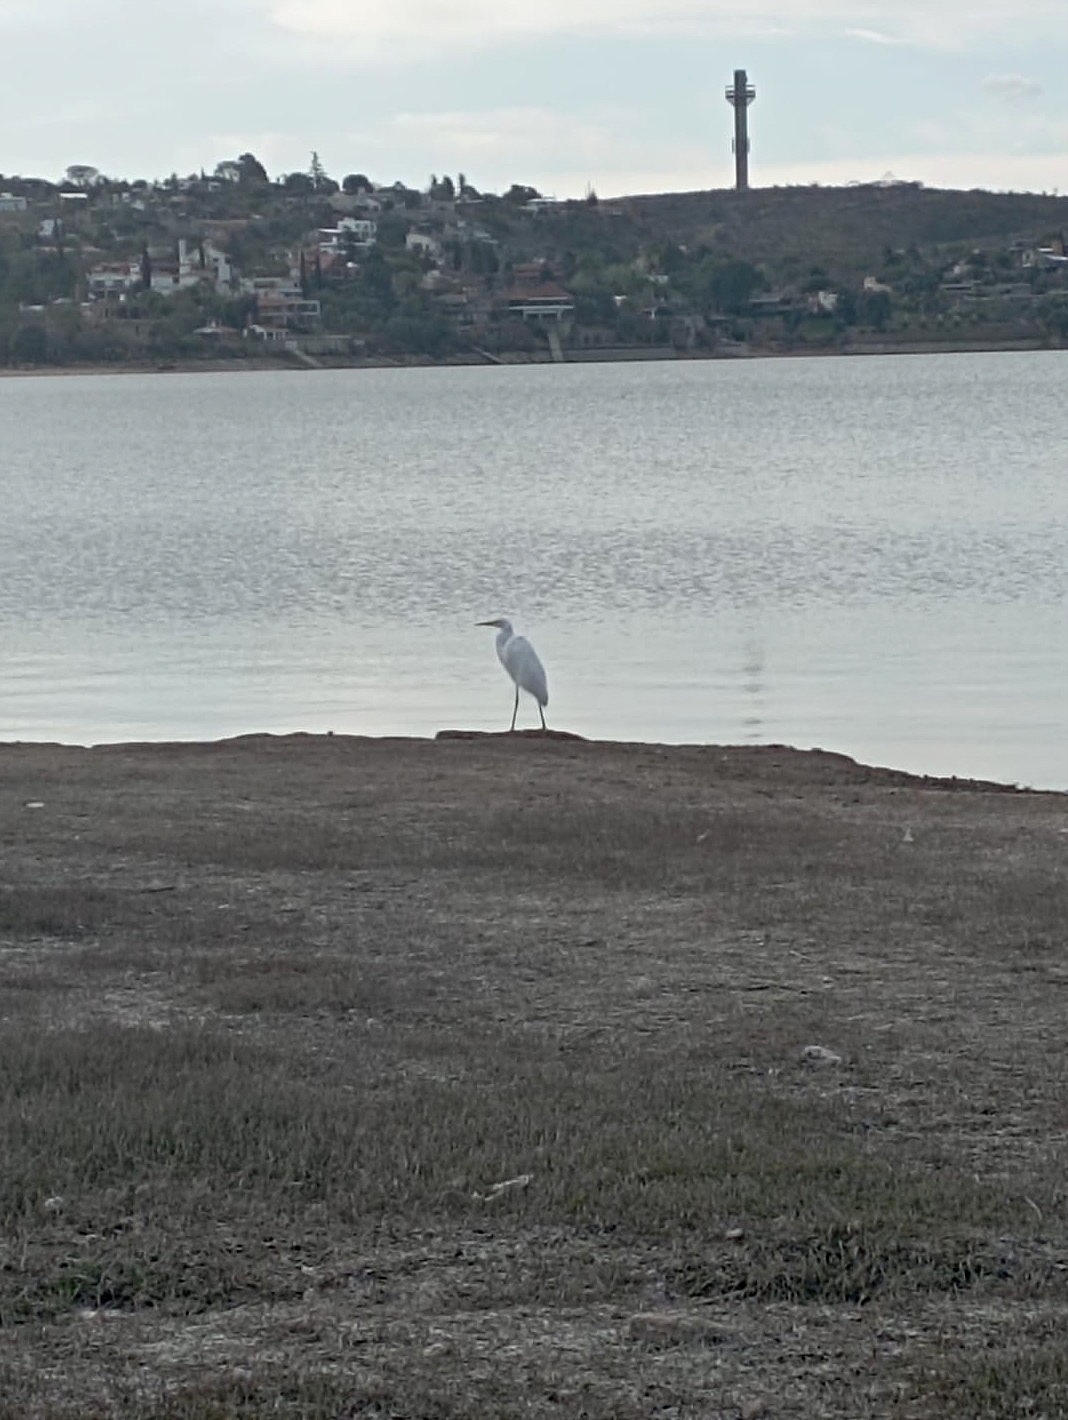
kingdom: Animalia
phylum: Chordata
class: Aves
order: Pelecaniformes
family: Ardeidae
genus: Ardea
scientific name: Ardea alba
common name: Great egret
